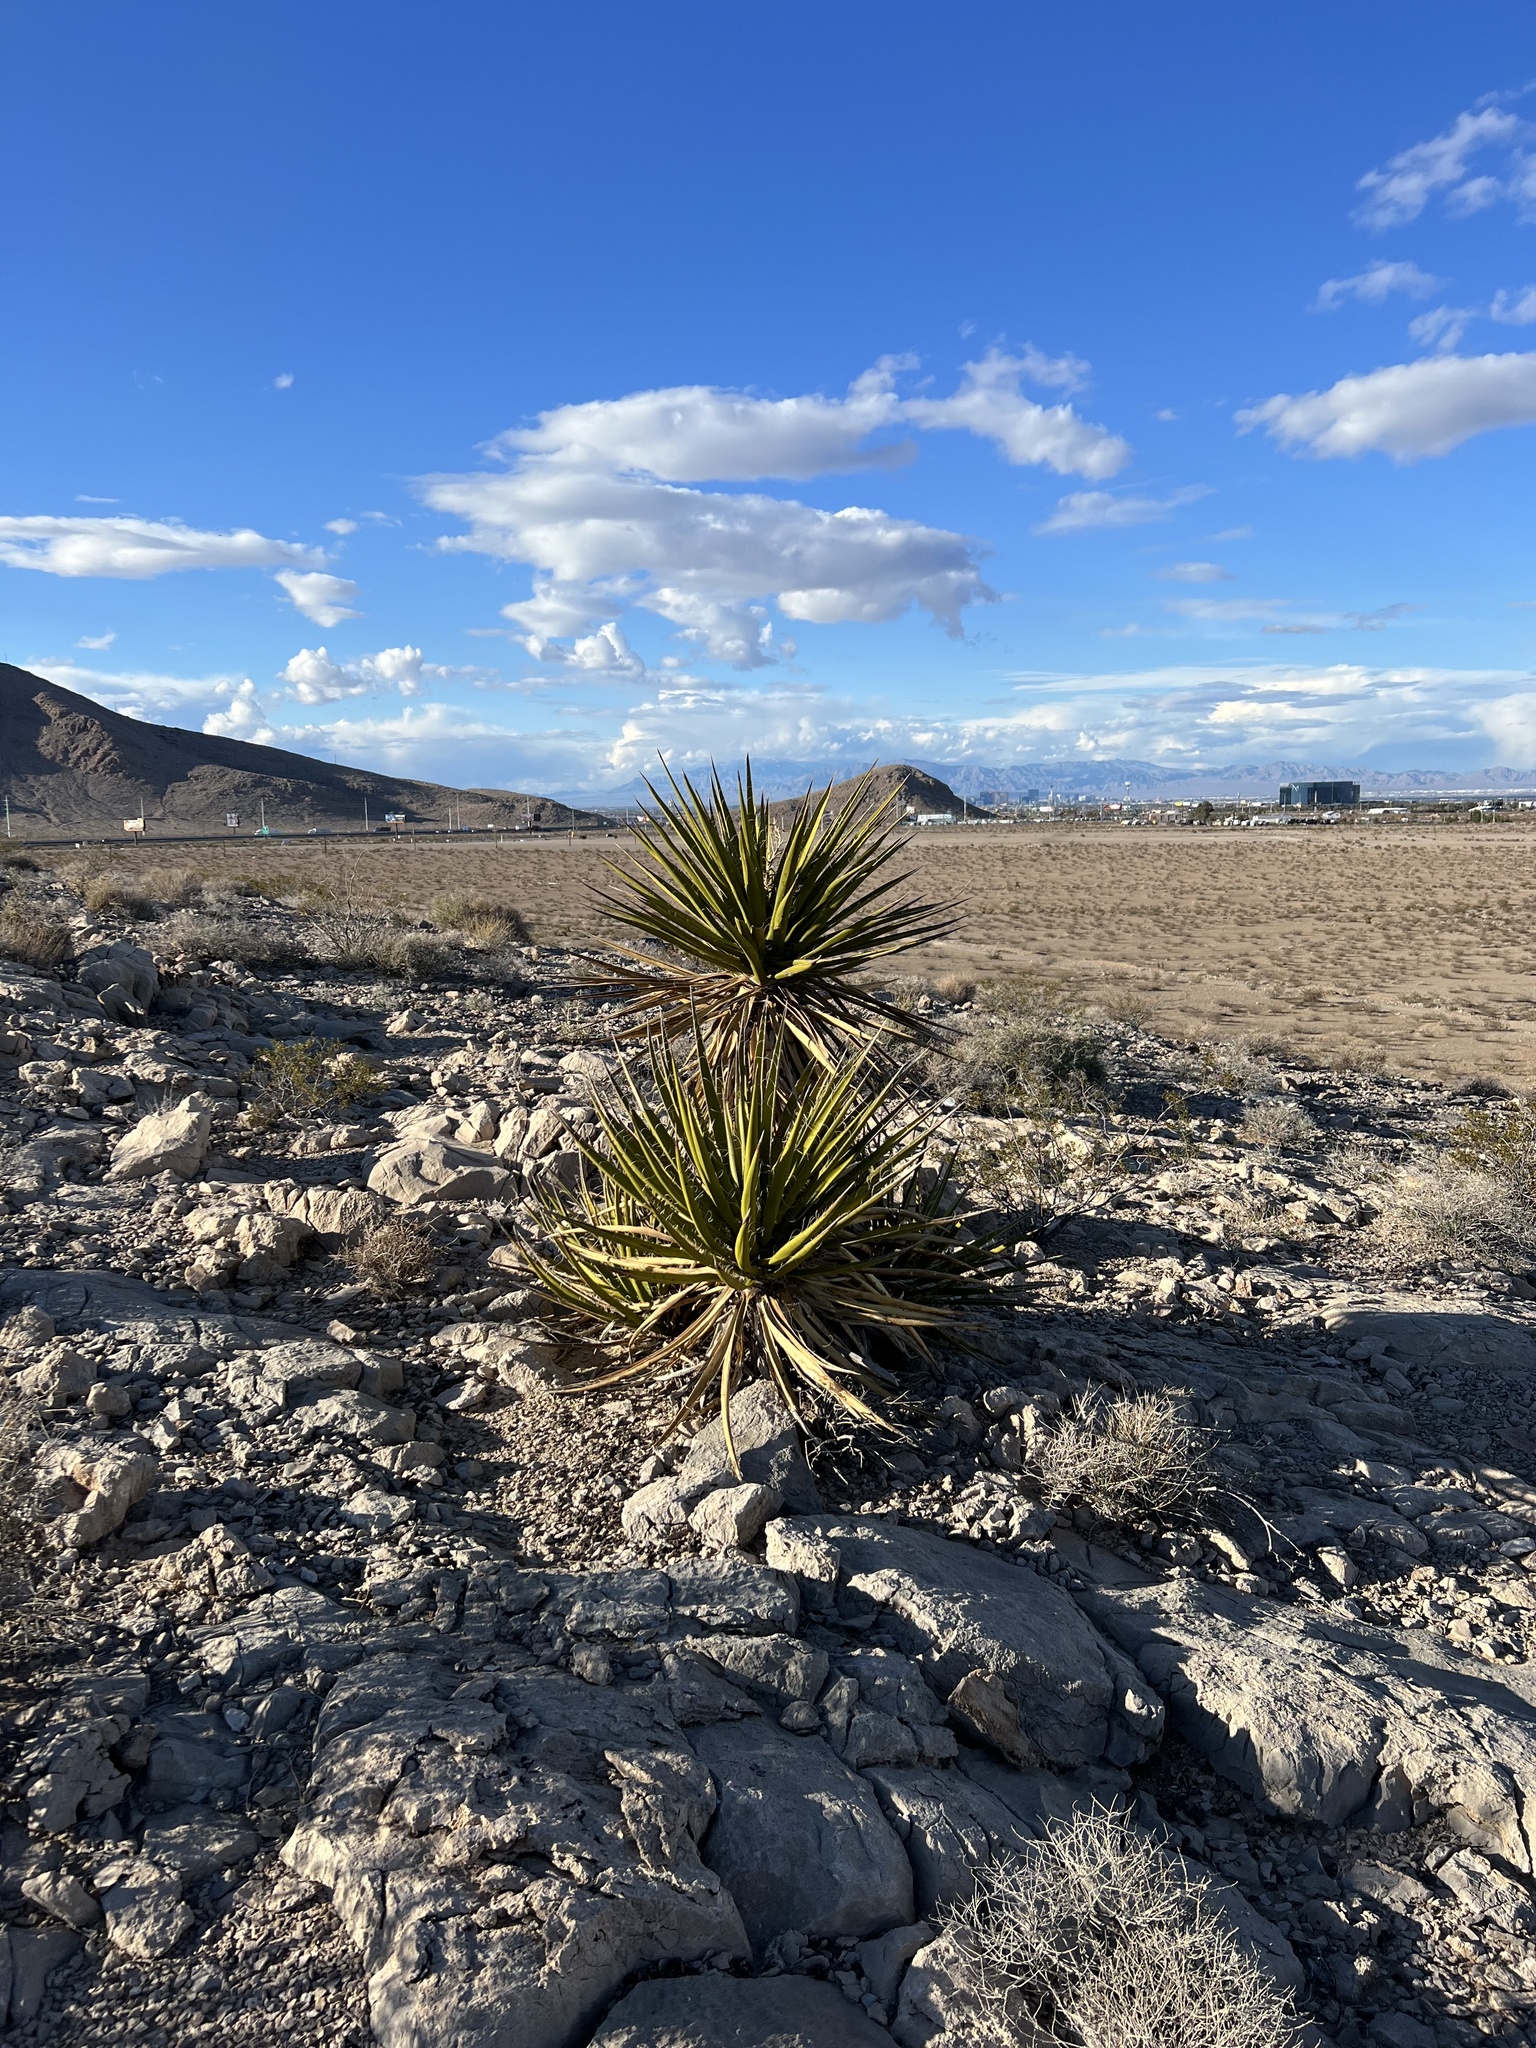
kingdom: Plantae
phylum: Tracheophyta
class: Liliopsida
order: Asparagales
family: Asparagaceae
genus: Yucca
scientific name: Yucca schidigera
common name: Mojave yucca
